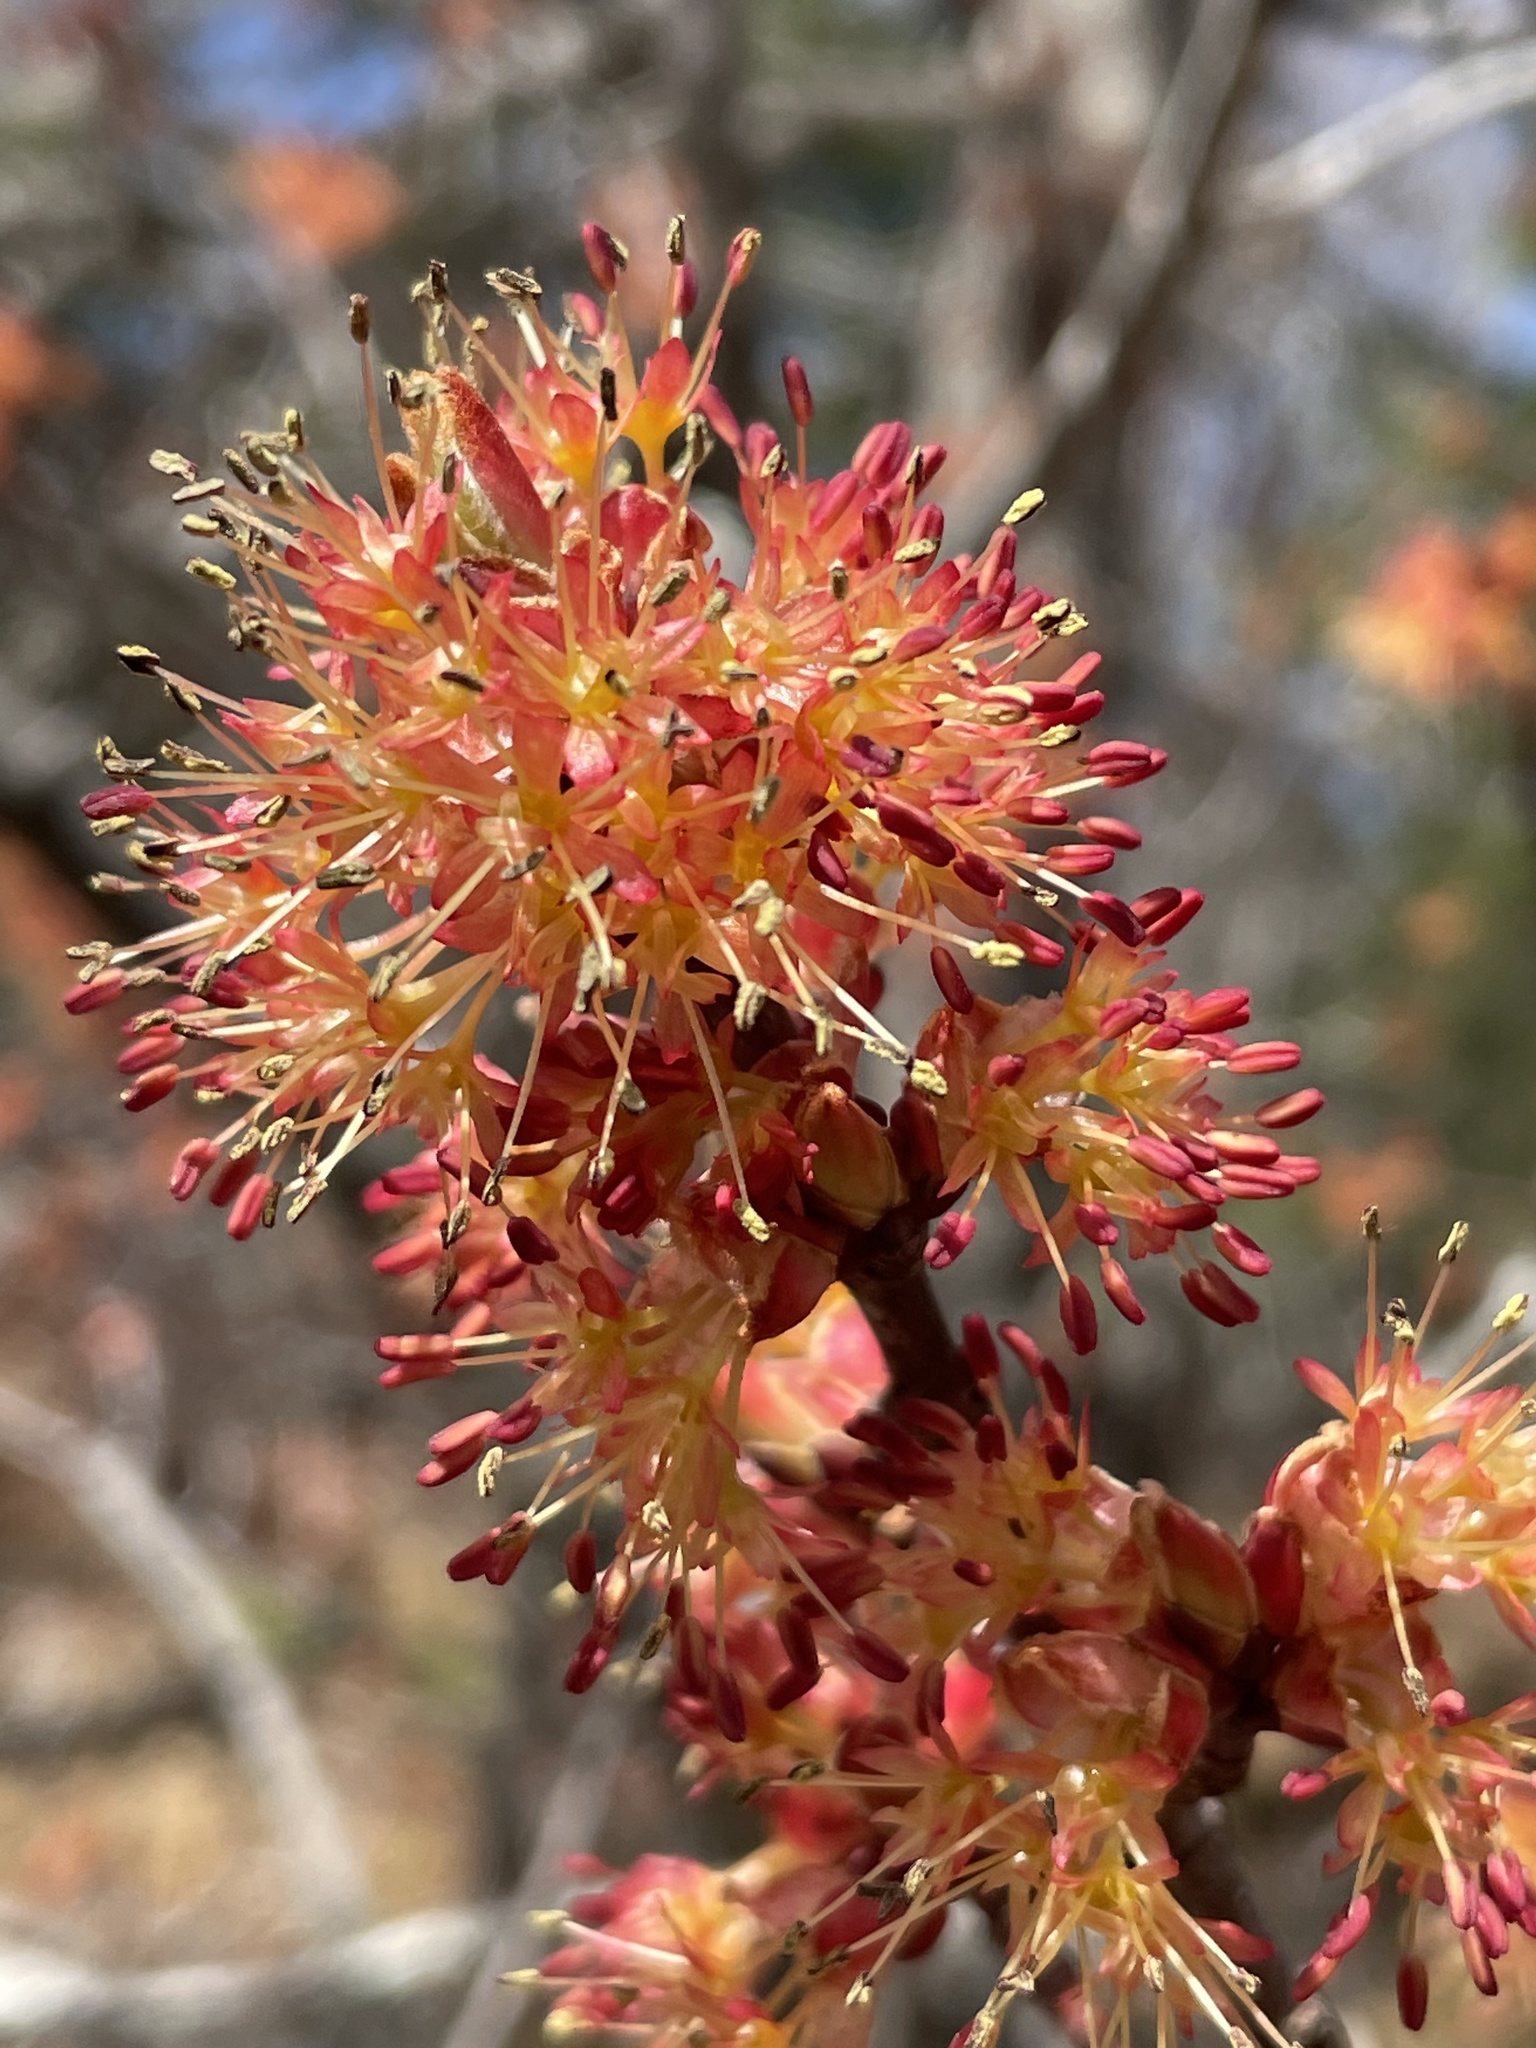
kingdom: Plantae
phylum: Tracheophyta
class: Magnoliopsida
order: Sapindales
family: Sapindaceae
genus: Acer
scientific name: Acer rubrum
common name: Red maple
